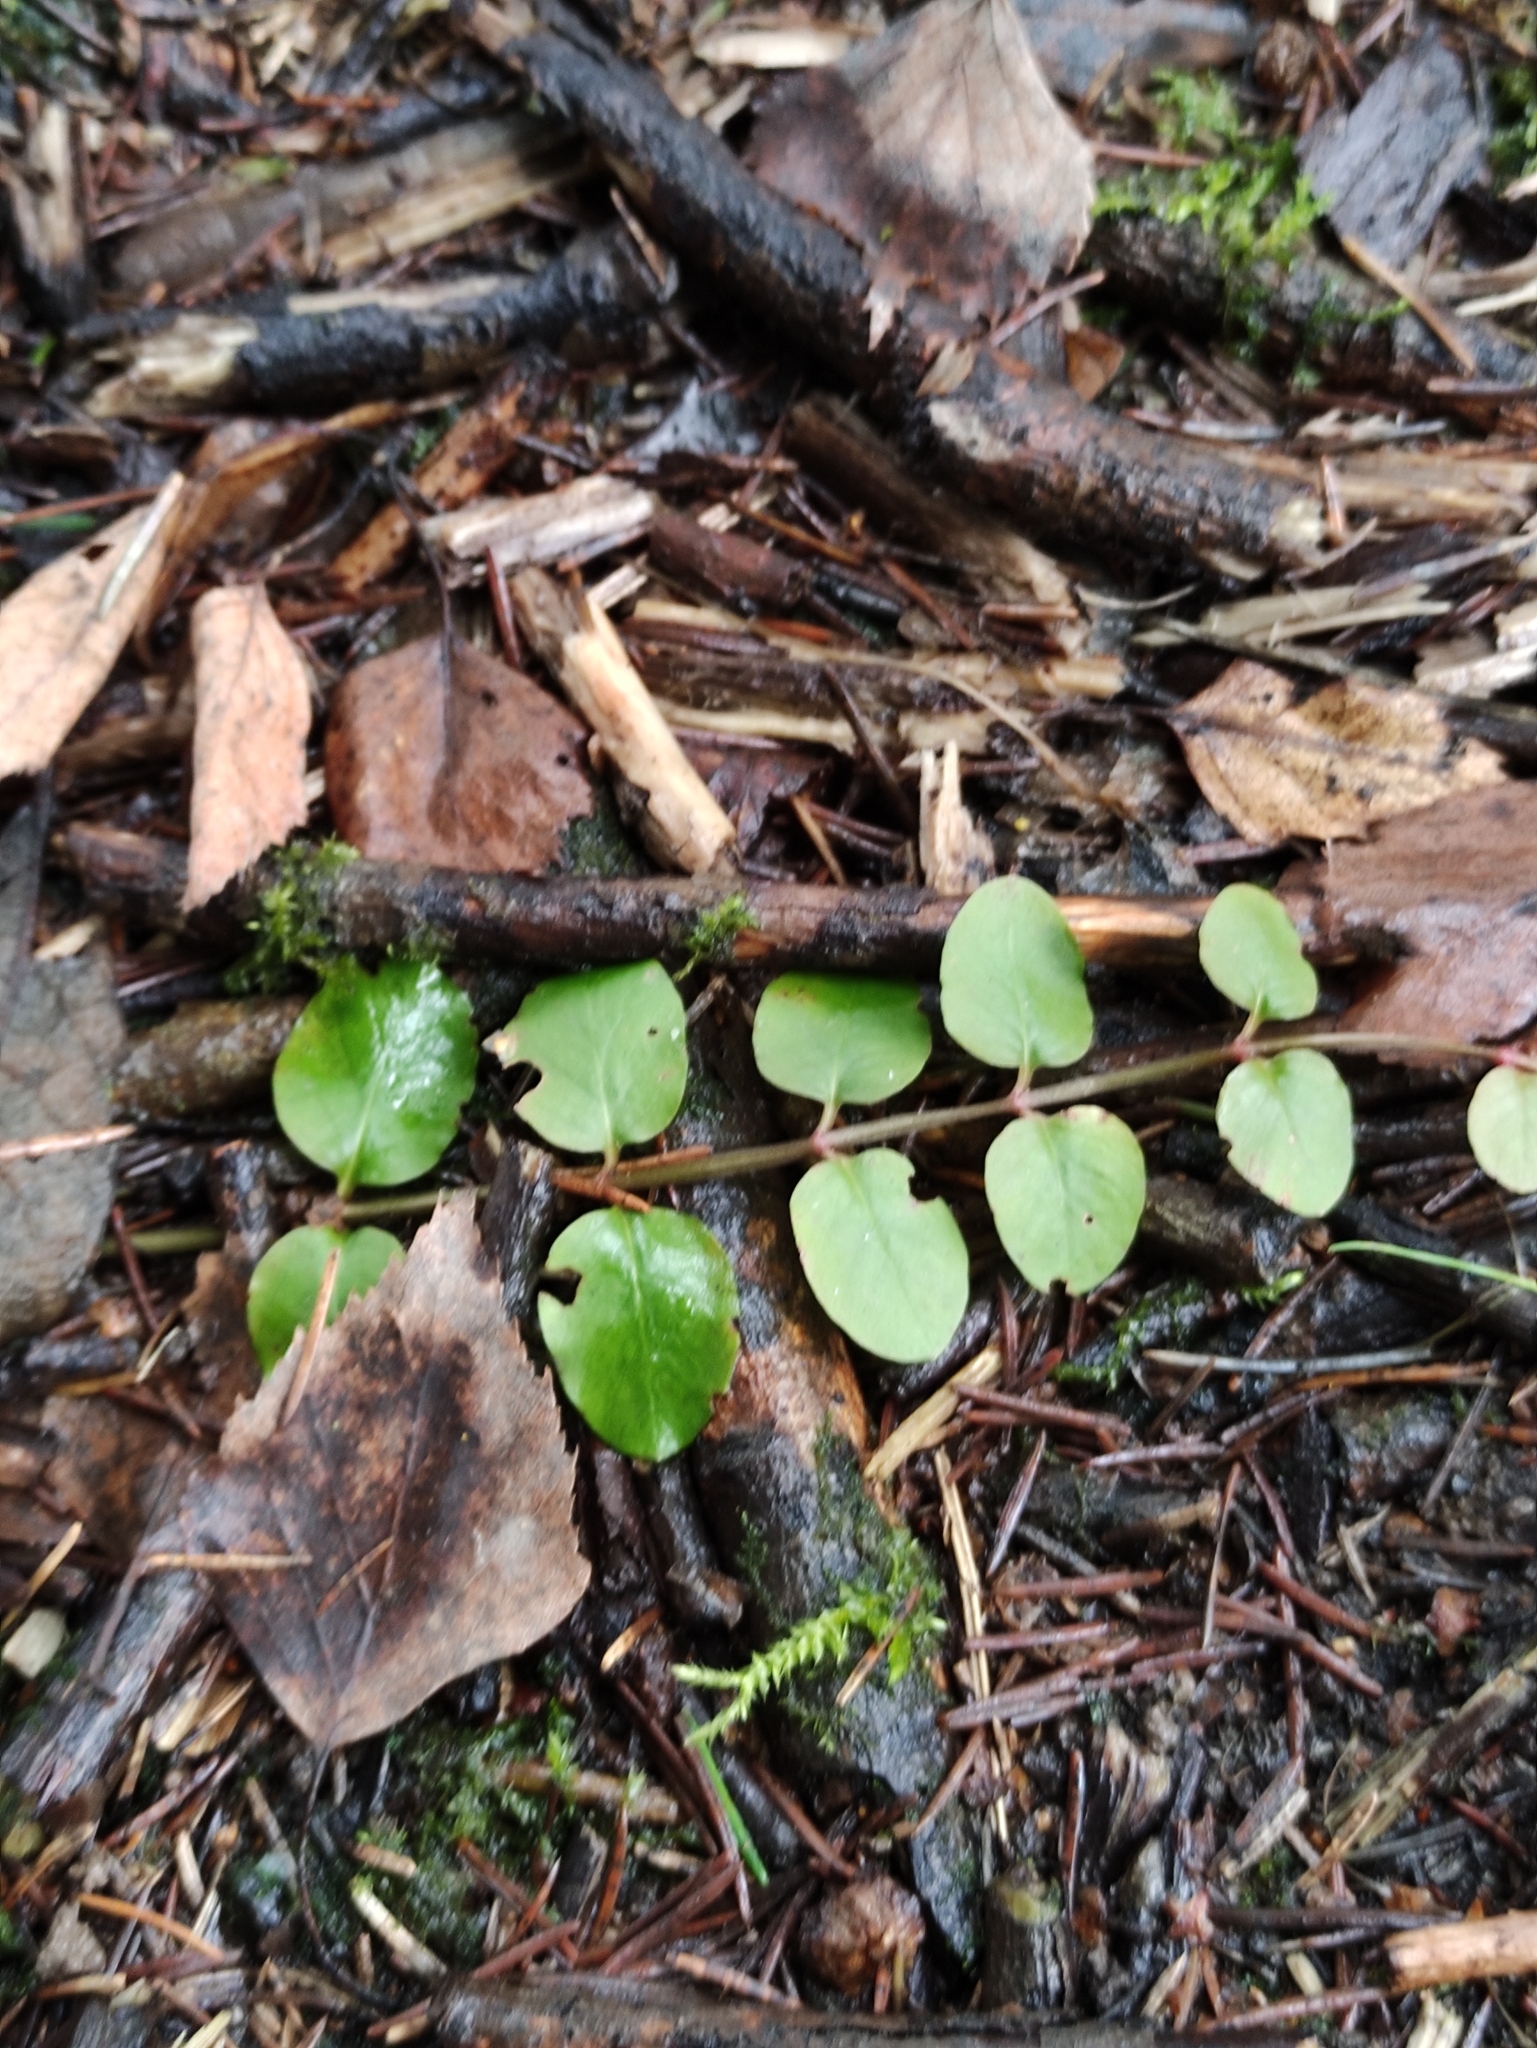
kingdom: Plantae
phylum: Tracheophyta
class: Magnoliopsida
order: Ericales
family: Primulaceae
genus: Lysimachia
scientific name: Lysimachia nummularia
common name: Moneywort
